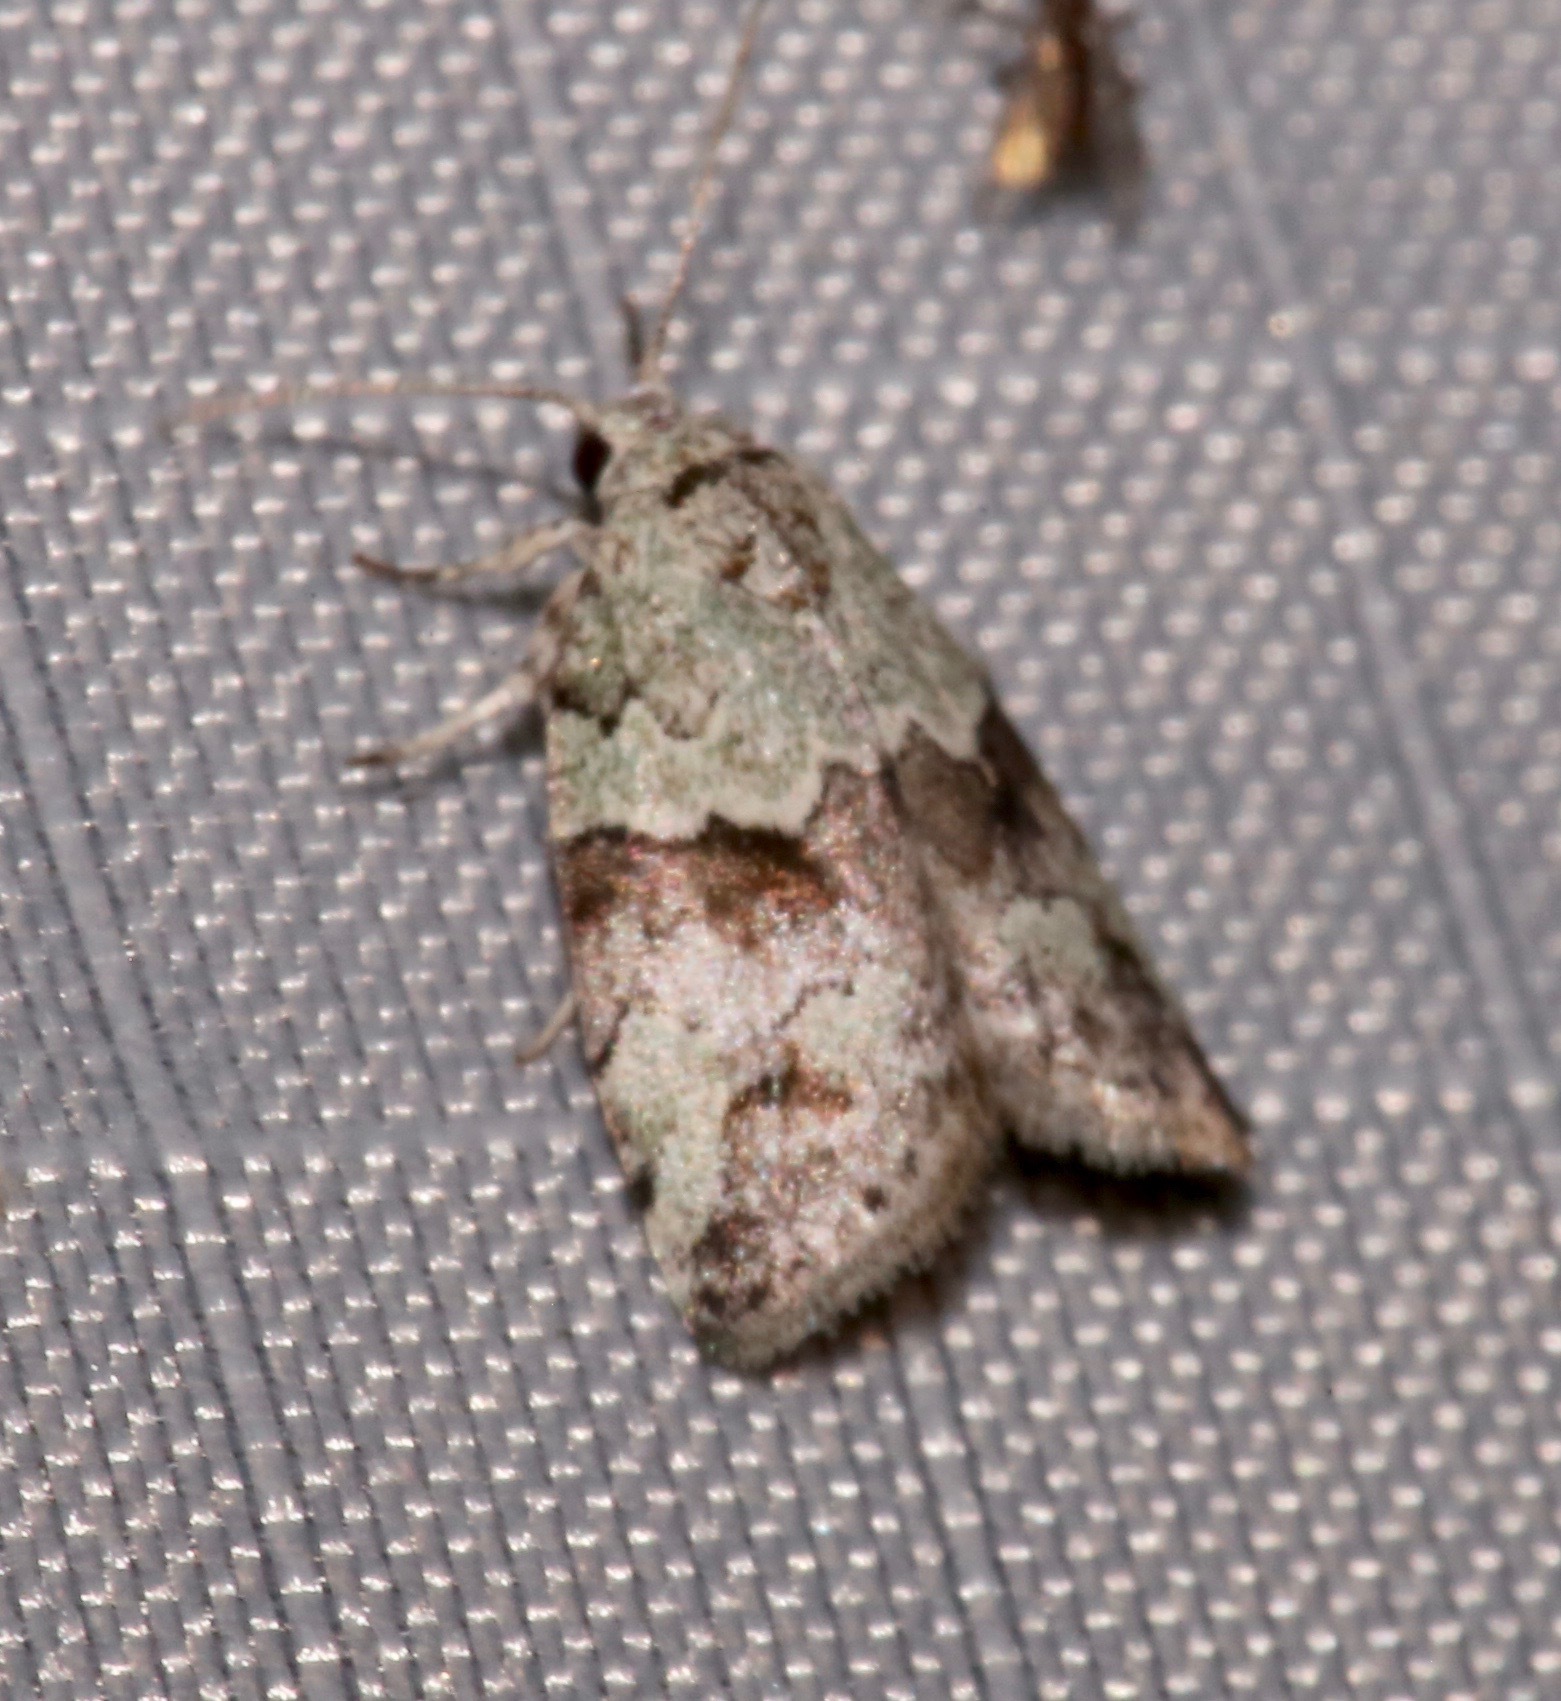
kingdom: Animalia
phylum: Arthropoda
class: Insecta
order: Lepidoptera
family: Nolidae
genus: Afrida
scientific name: Afrida ydatodes
